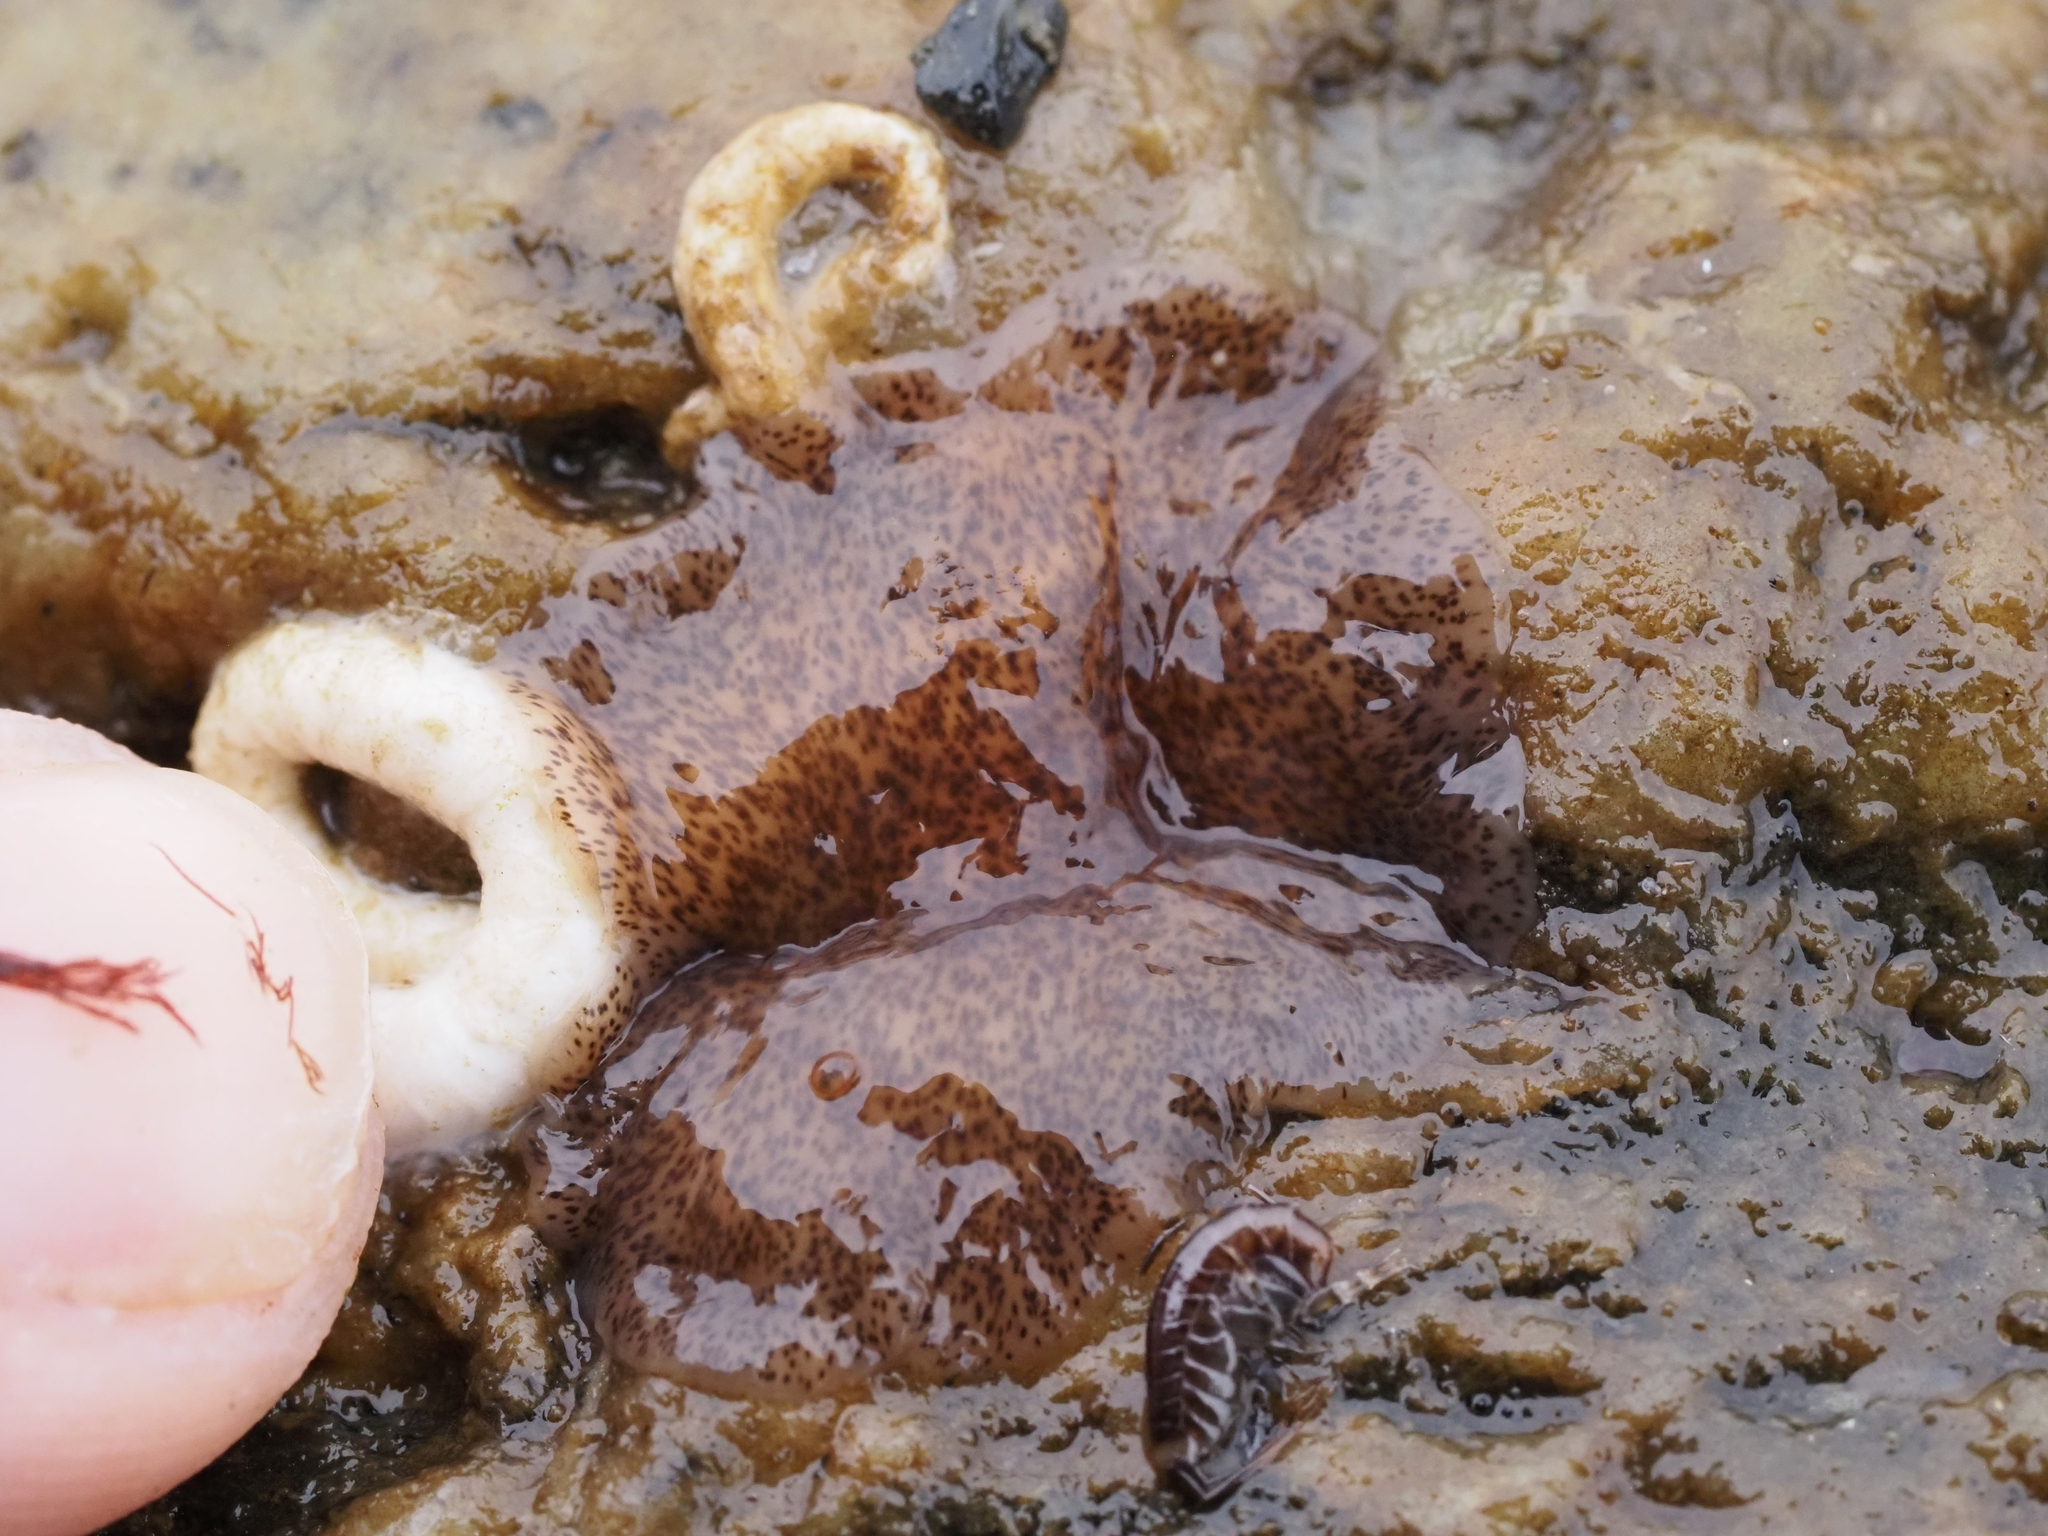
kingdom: Animalia
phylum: Platyhelminthes
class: Turbellaria
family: Callioplanidae
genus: Kaburakia
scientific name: Kaburakia excelsa
